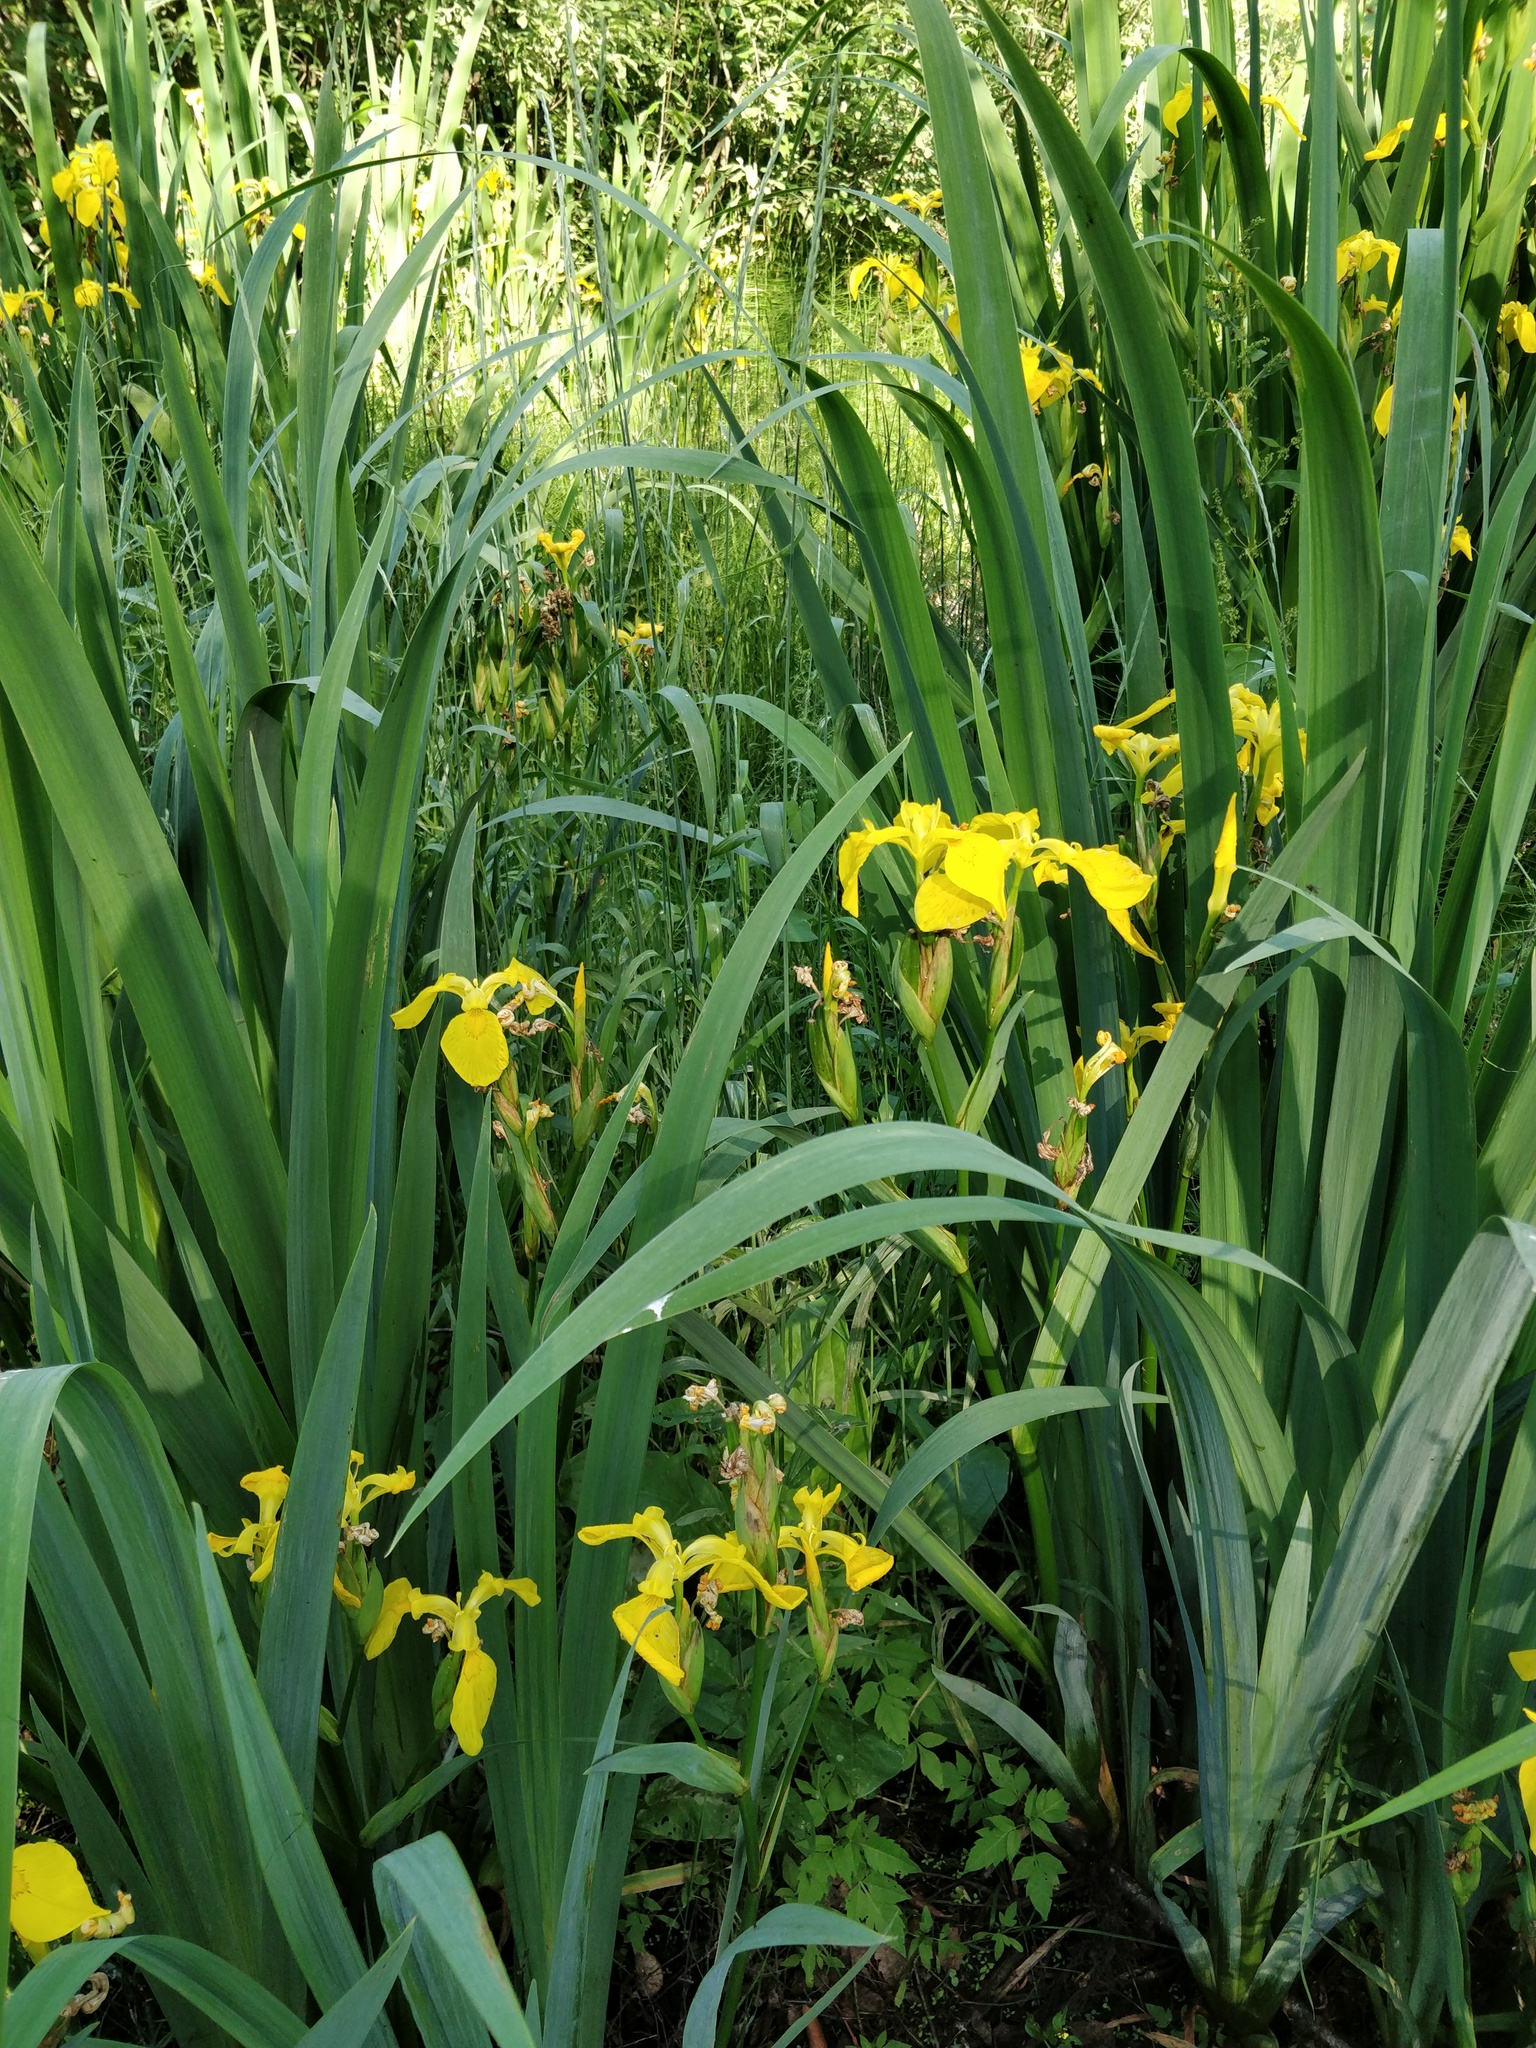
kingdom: Plantae
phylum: Tracheophyta
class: Liliopsida
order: Asparagales
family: Iridaceae
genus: Iris
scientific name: Iris pseudacorus
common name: Yellow flag
